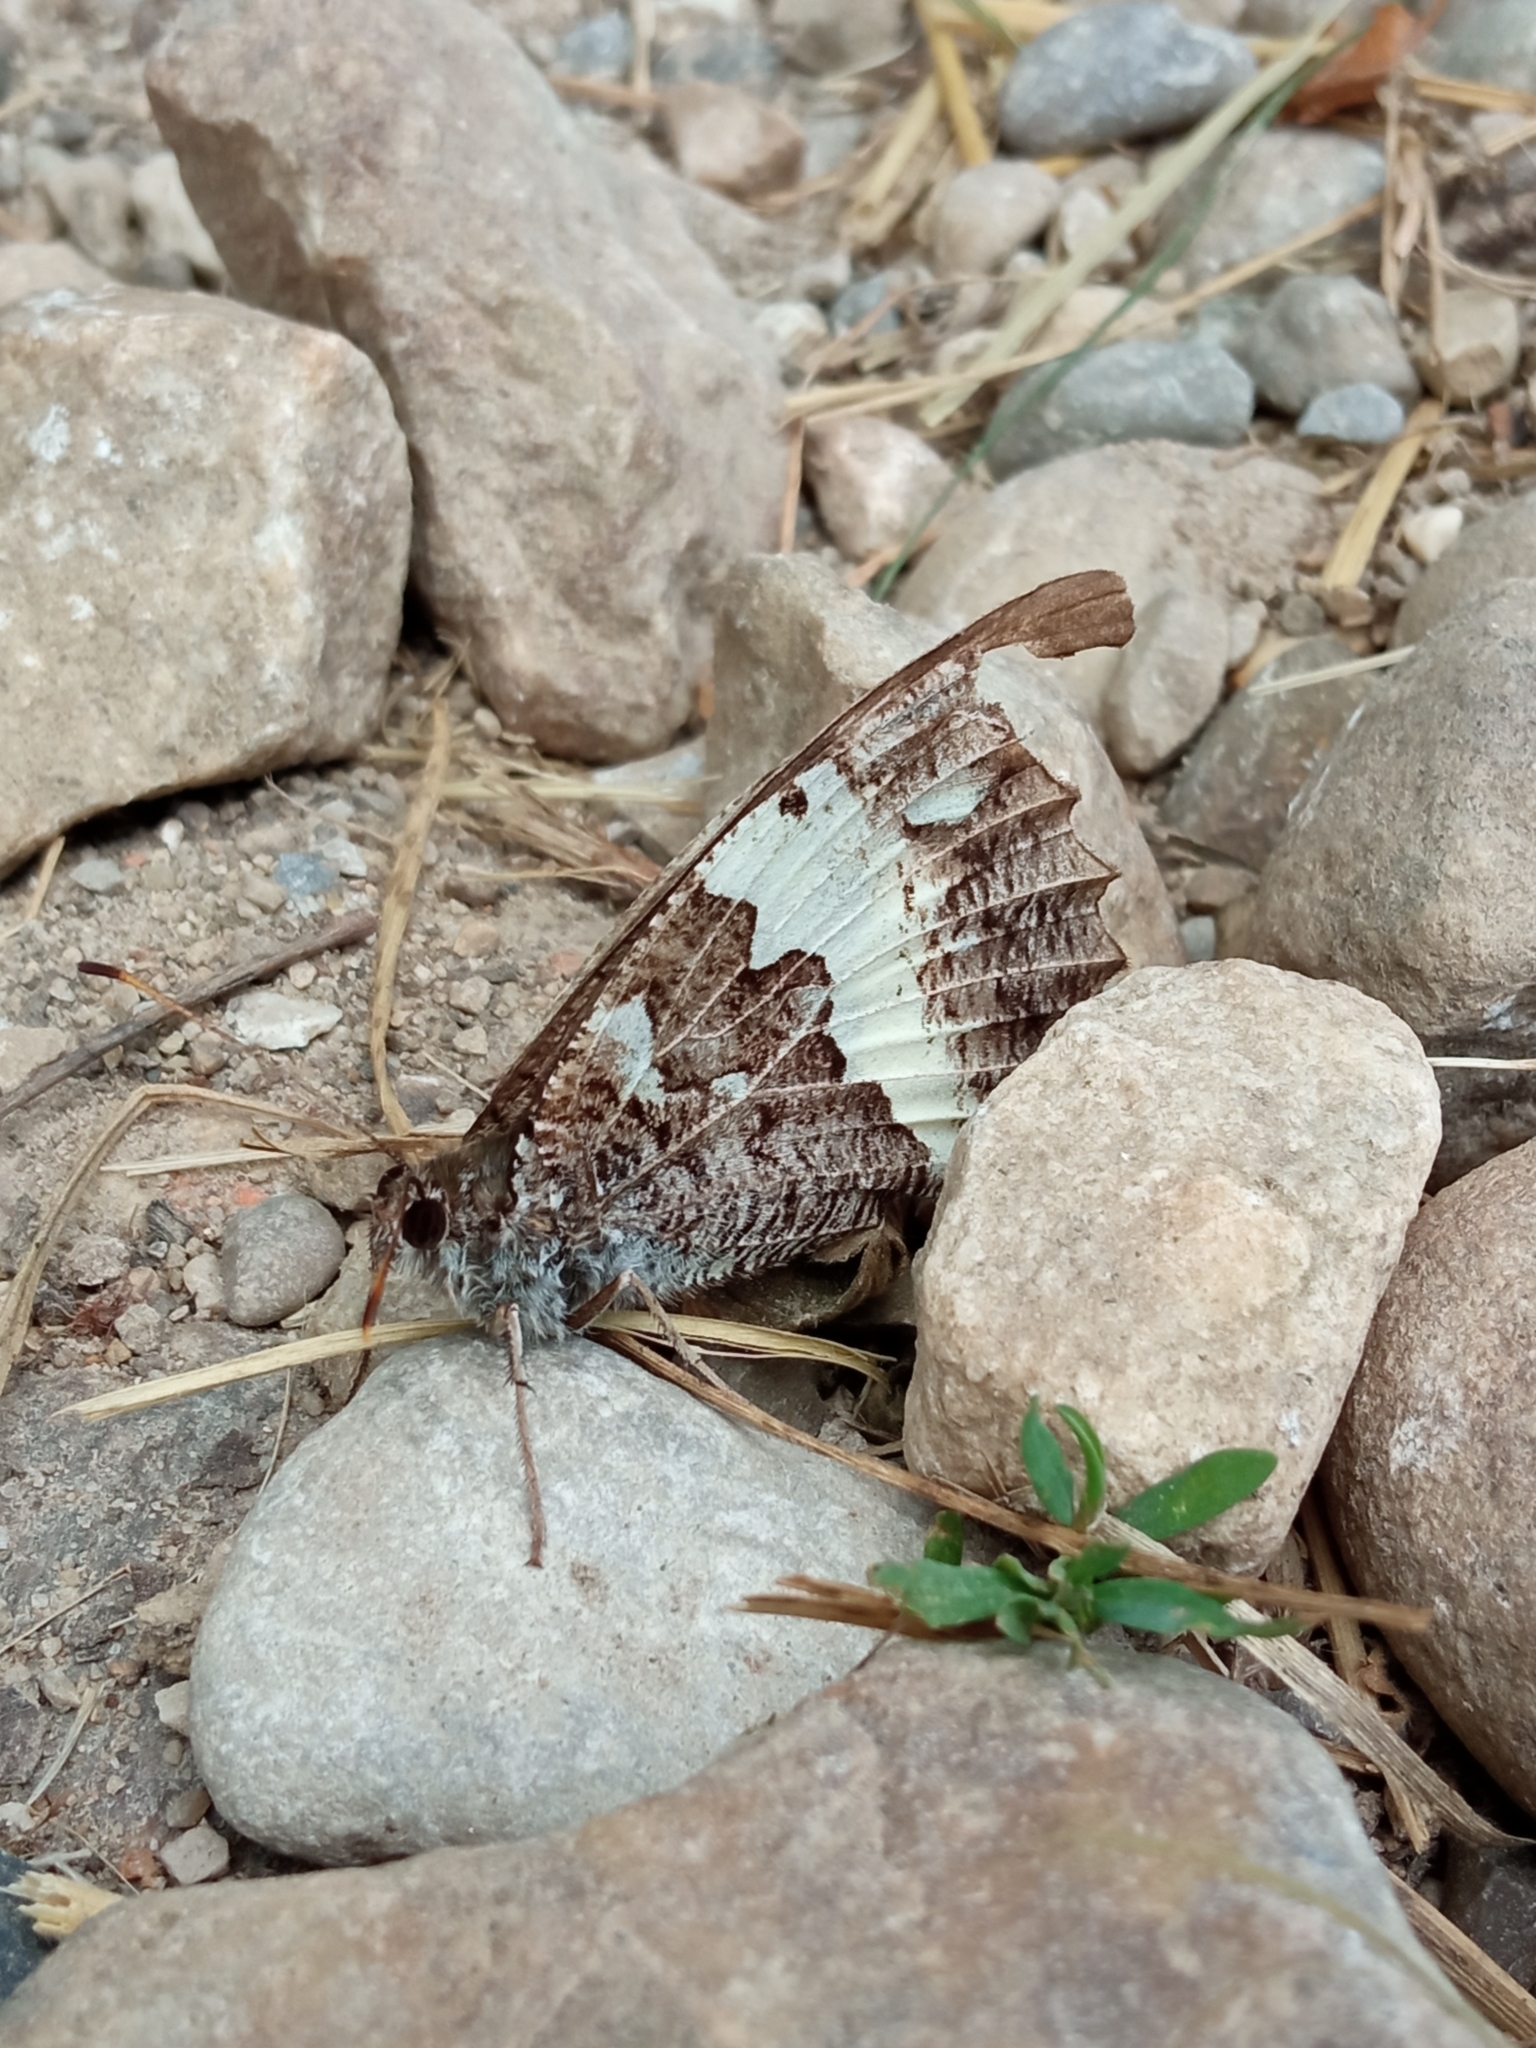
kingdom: Animalia
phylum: Arthropoda
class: Insecta
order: Lepidoptera
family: Lycaenidae
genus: Loweia
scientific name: Loweia tityrus
